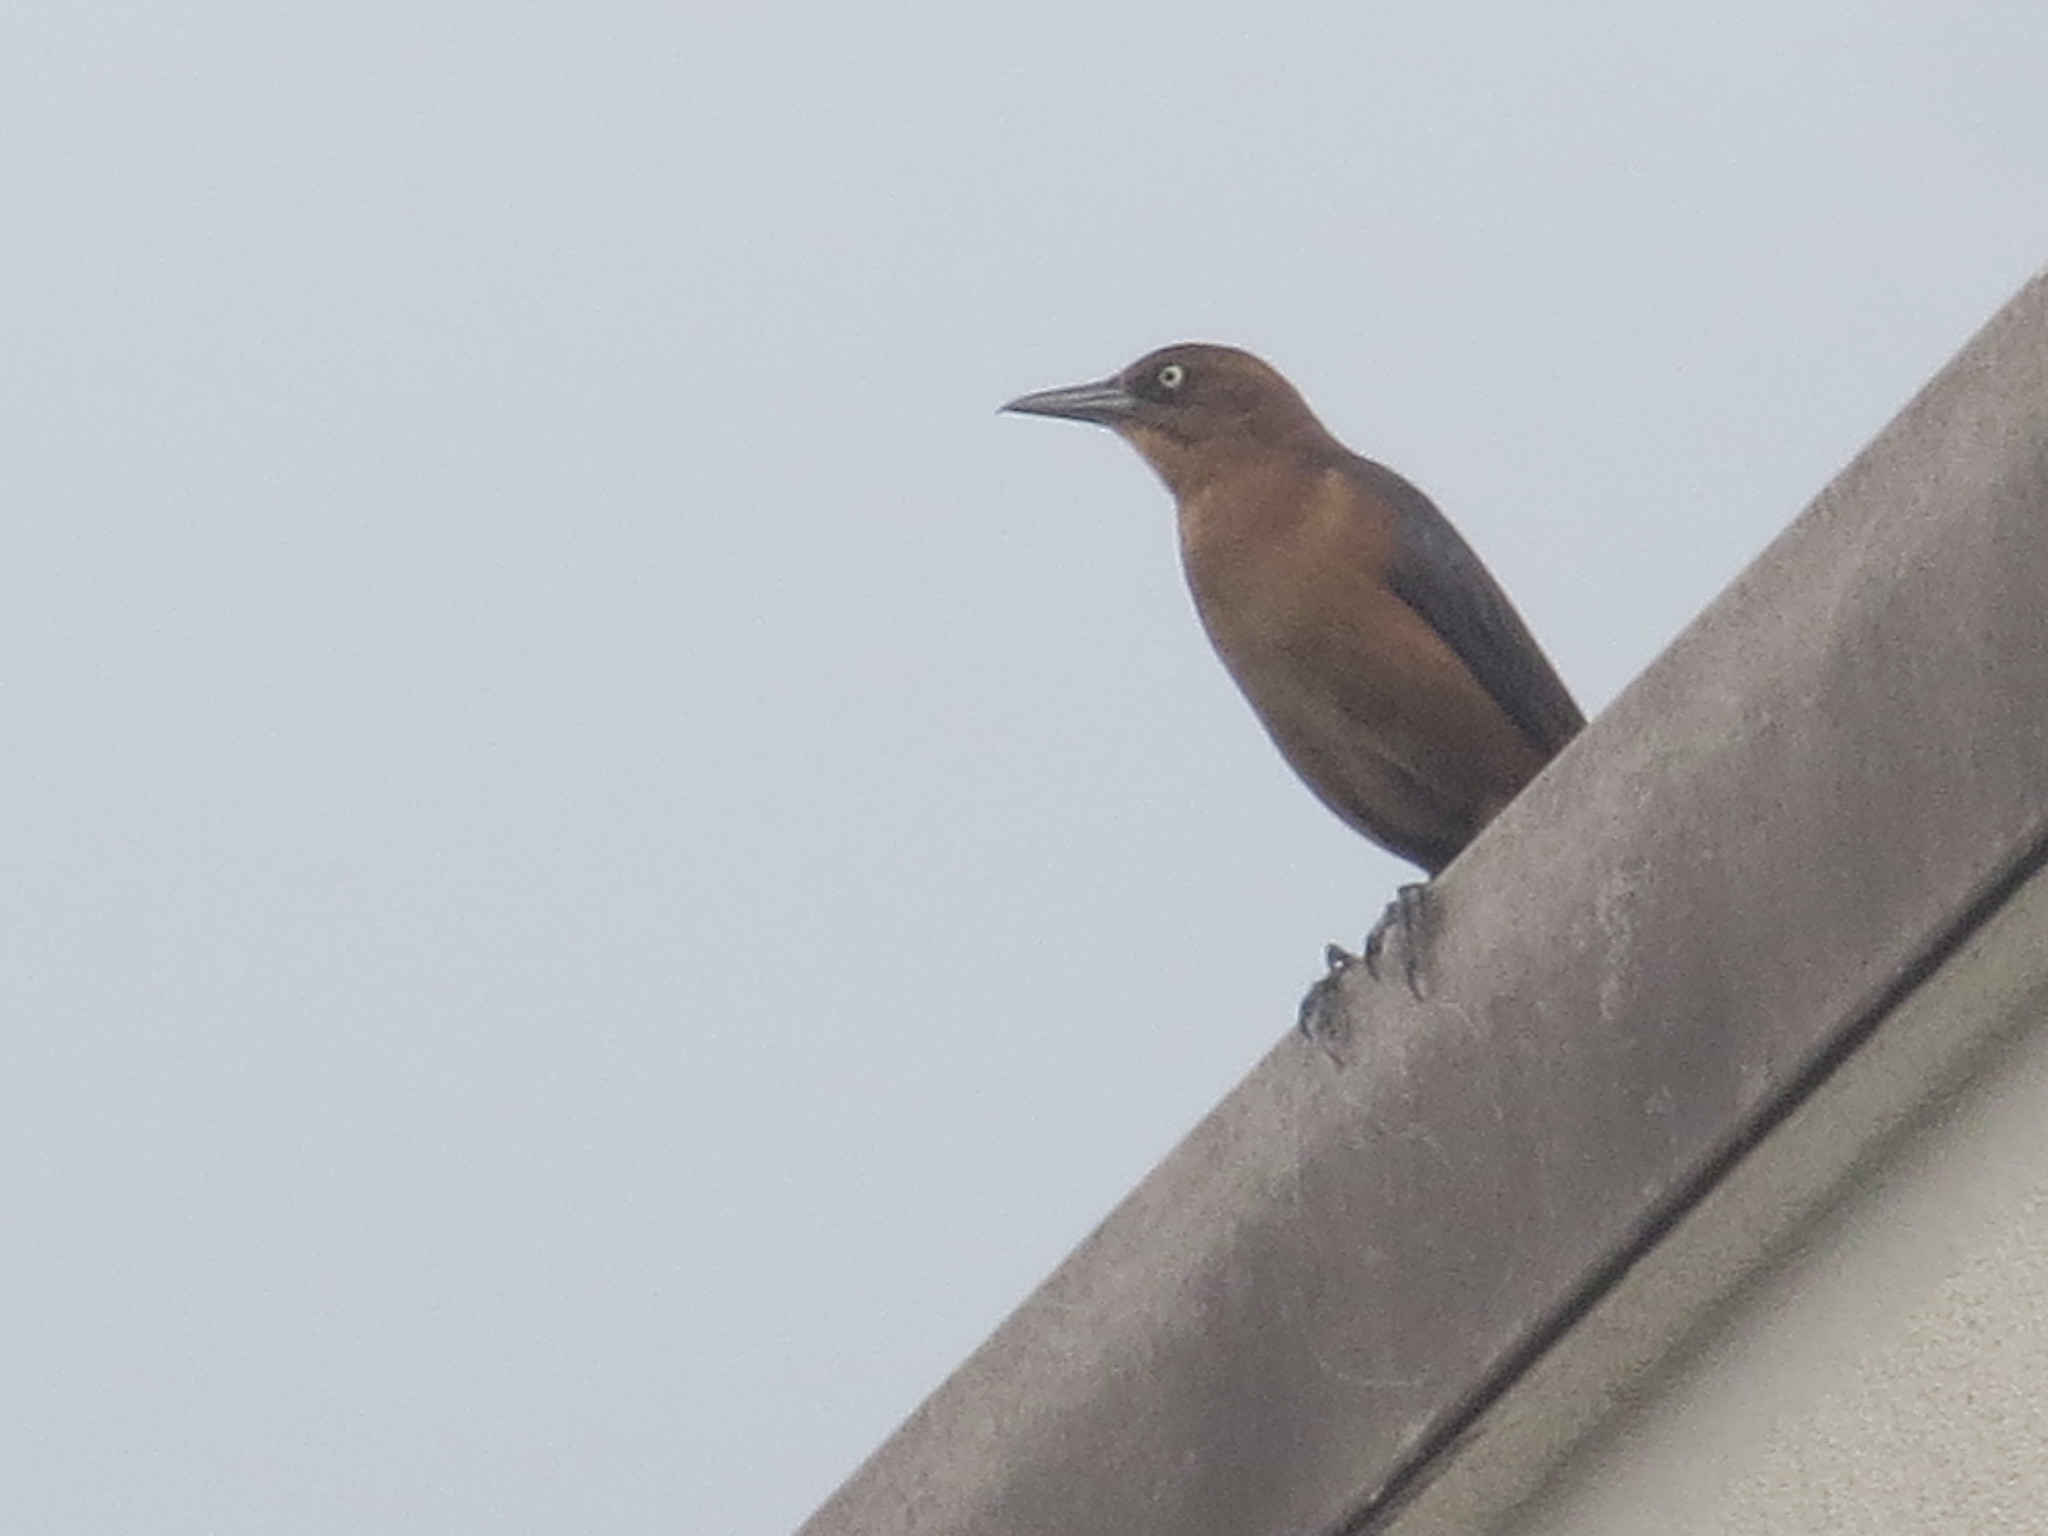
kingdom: Animalia
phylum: Chordata
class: Aves
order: Passeriformes
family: Icteridae
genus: Quiscalus
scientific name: Quiscalus major
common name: Boat-tailed grackle
